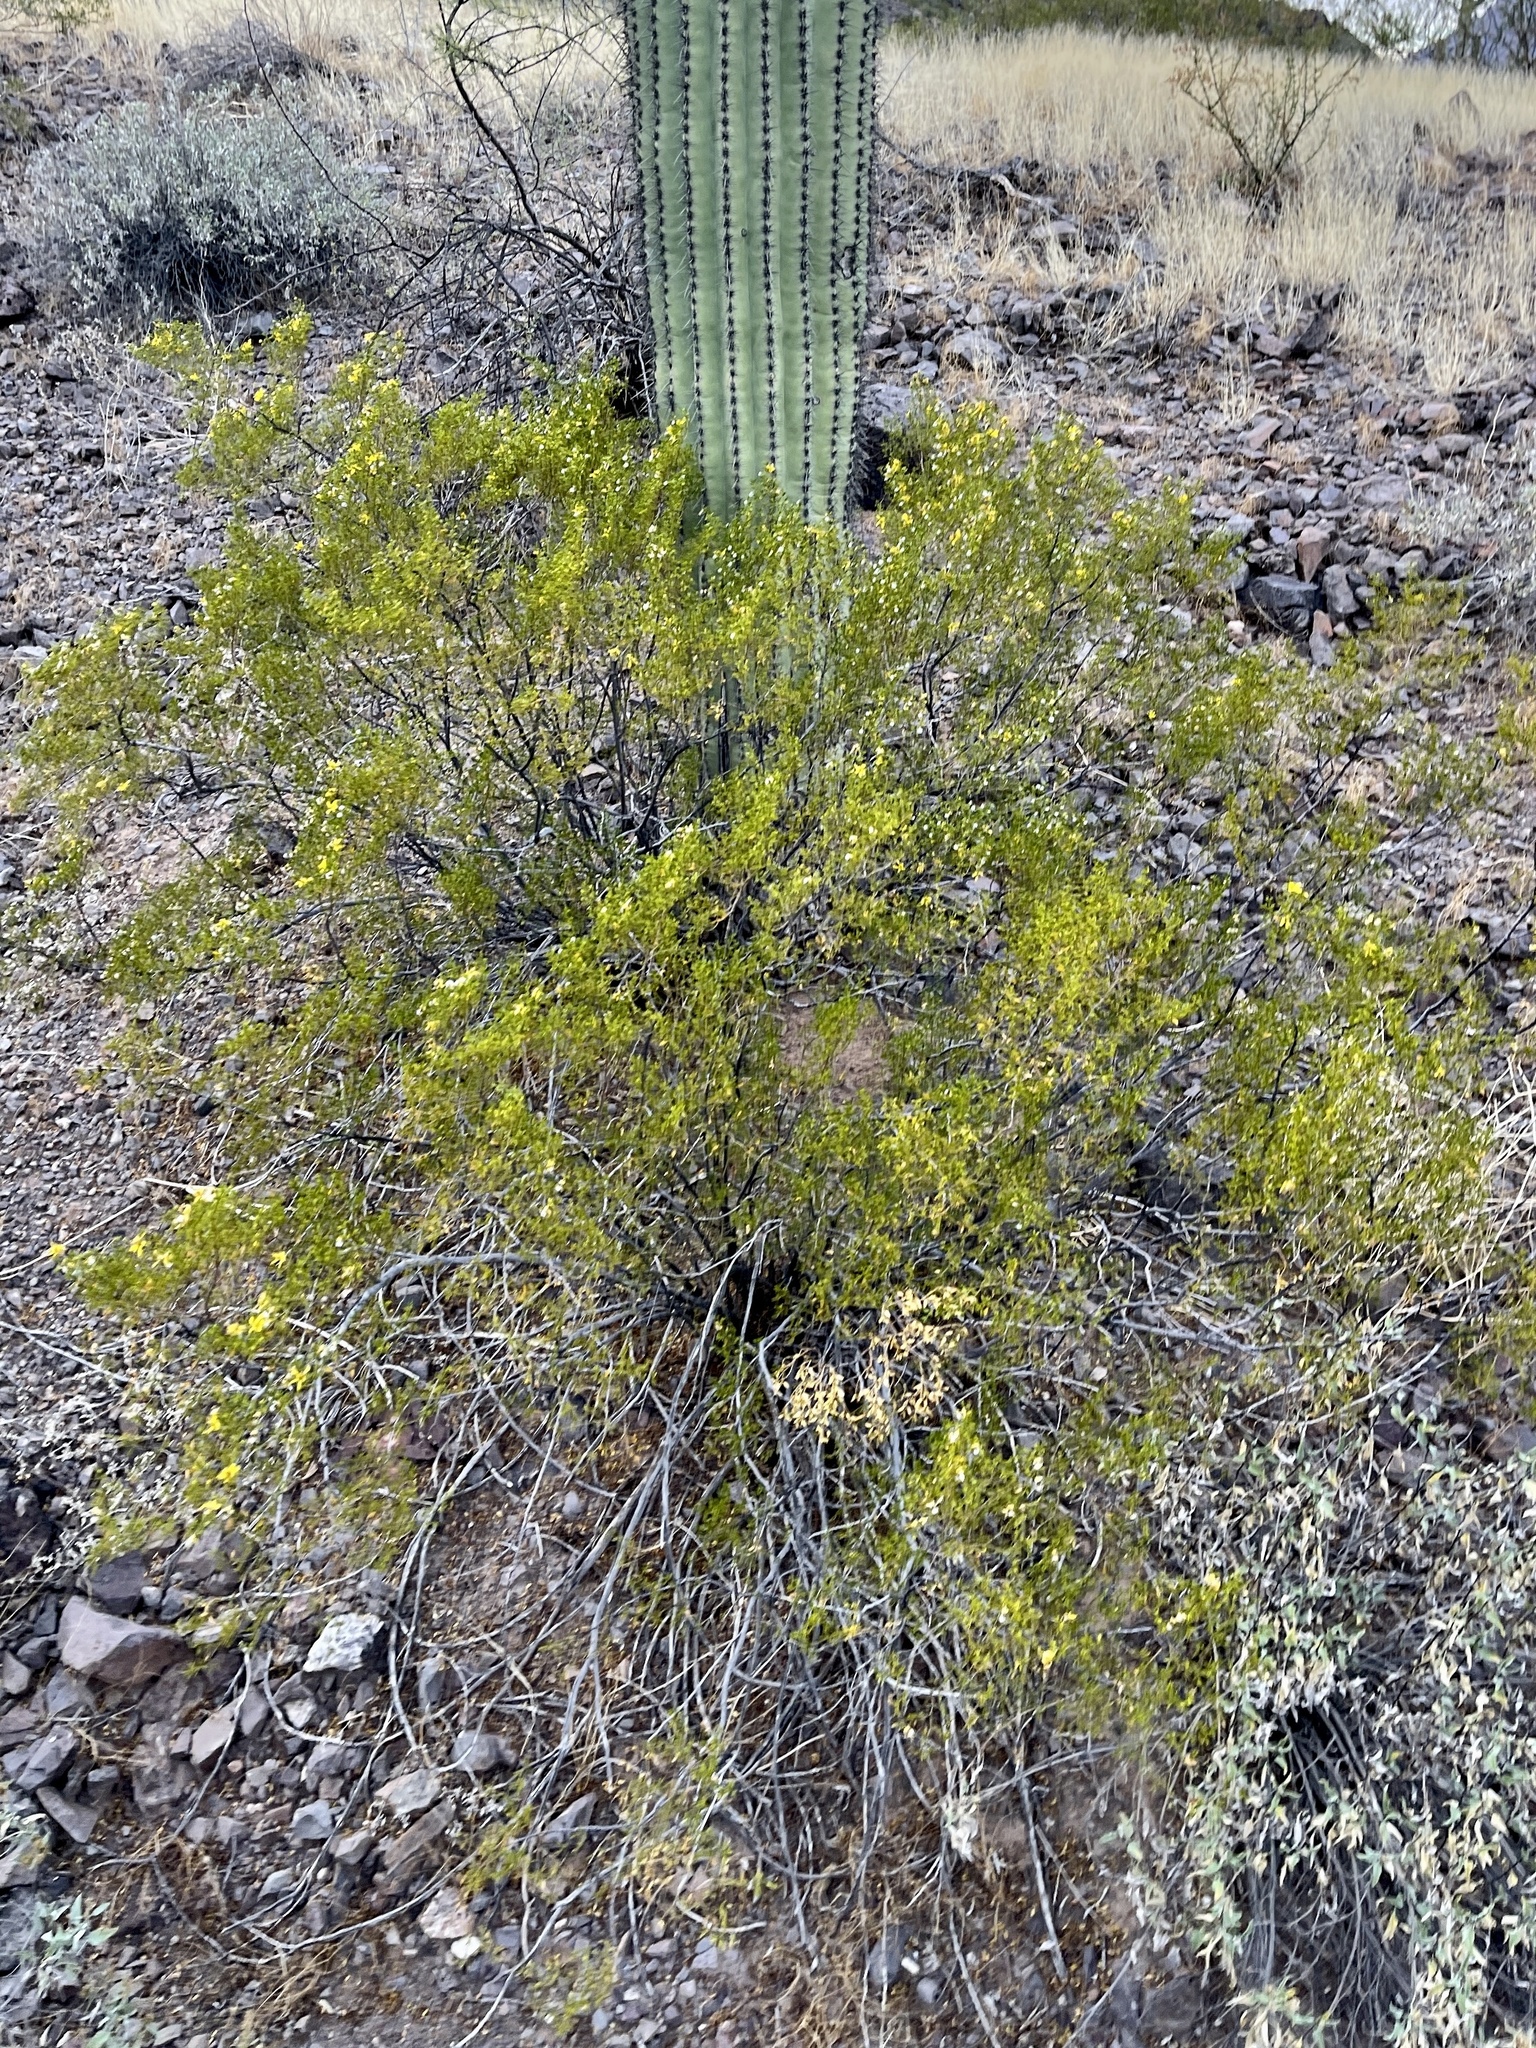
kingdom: Plantae
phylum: Tracheophyta
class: Magnoliopsida
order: Zygophyllales
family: Zygophyllaceae
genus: Larrea
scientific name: Larrea tridentata
